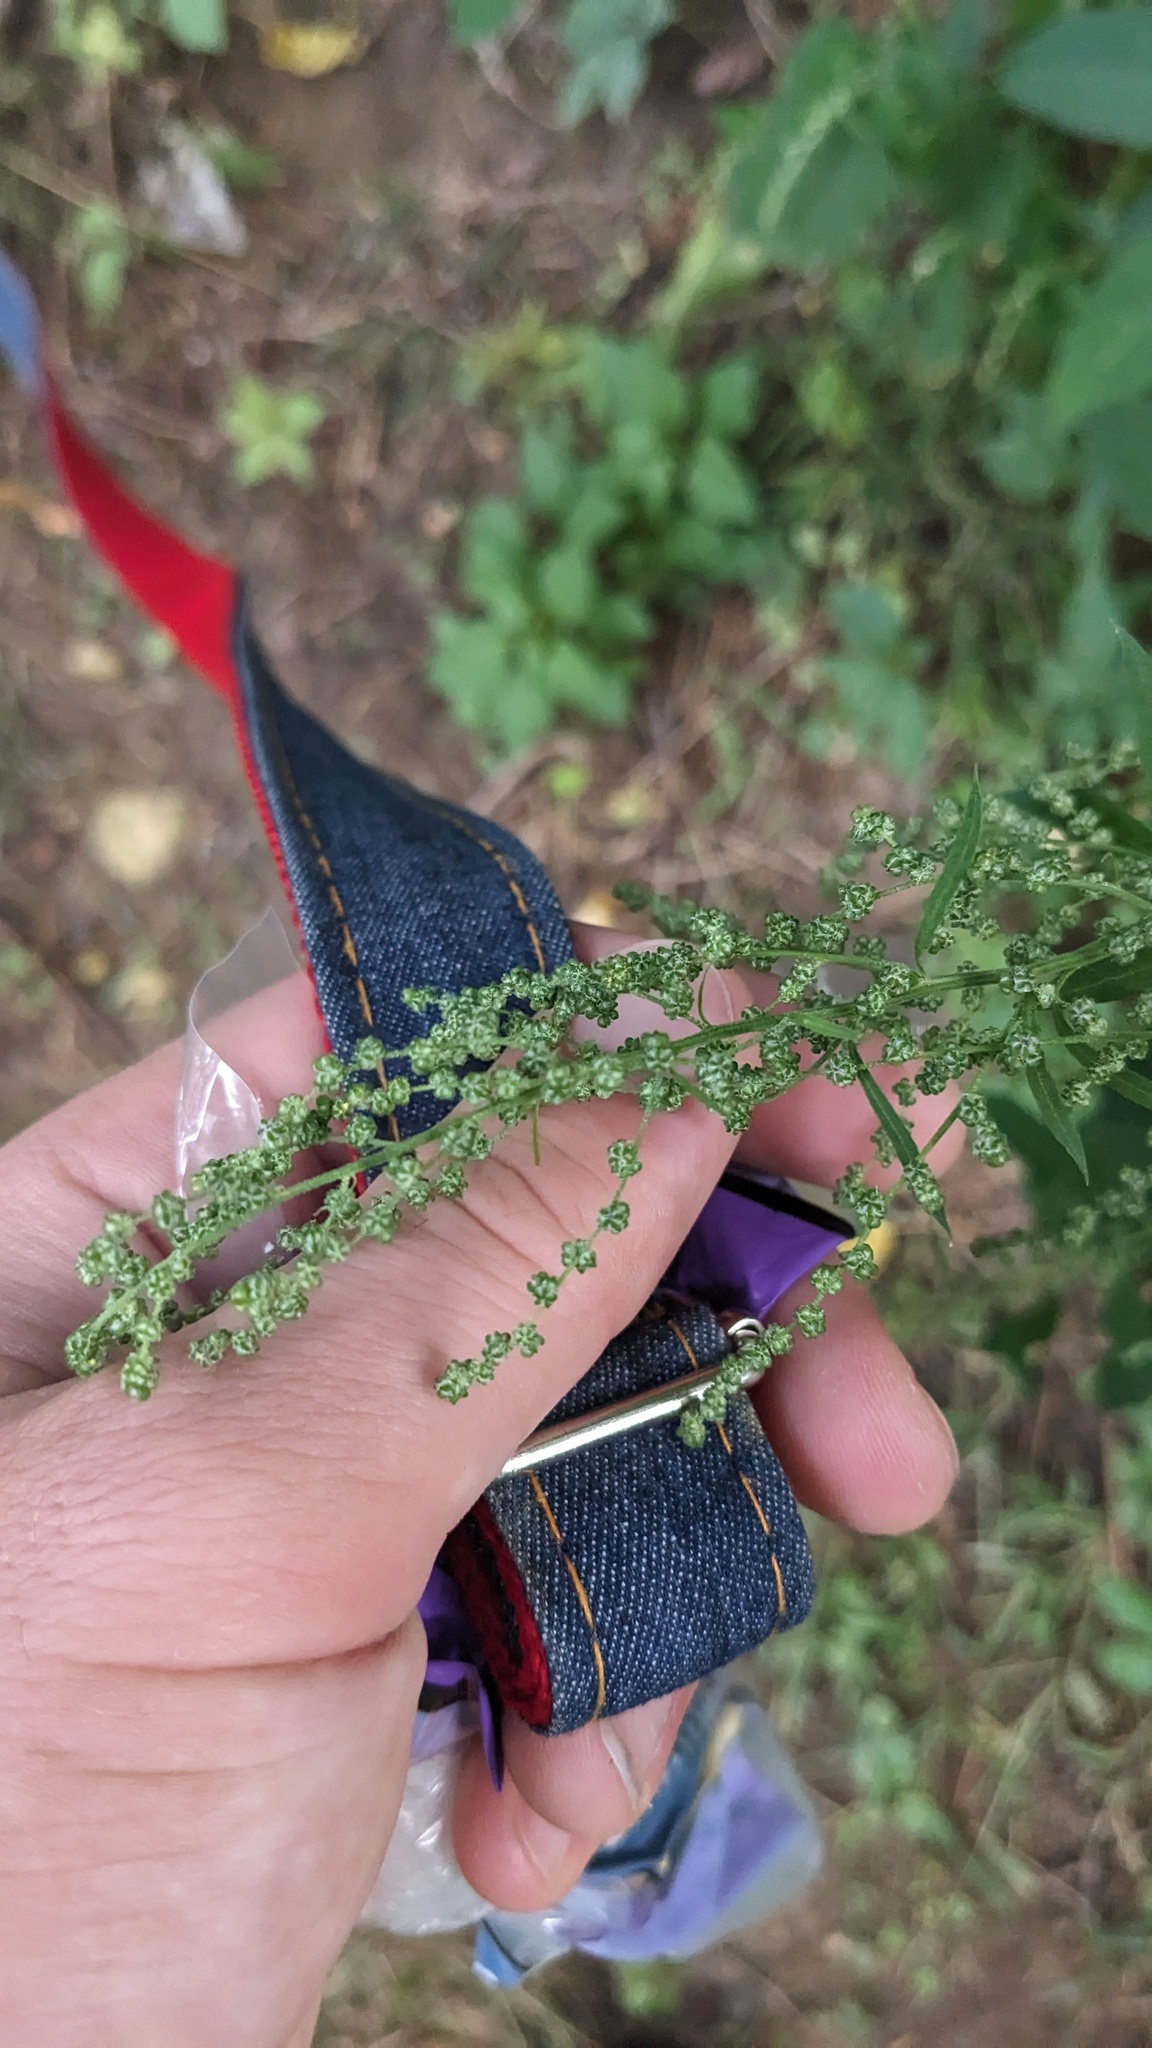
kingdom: Plantae
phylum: Tracheophyta
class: Magnoliopsida
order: Caryophyllales
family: Amaranthaceae
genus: Chenopodium
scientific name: Chenopodium album
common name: Fat-hen
